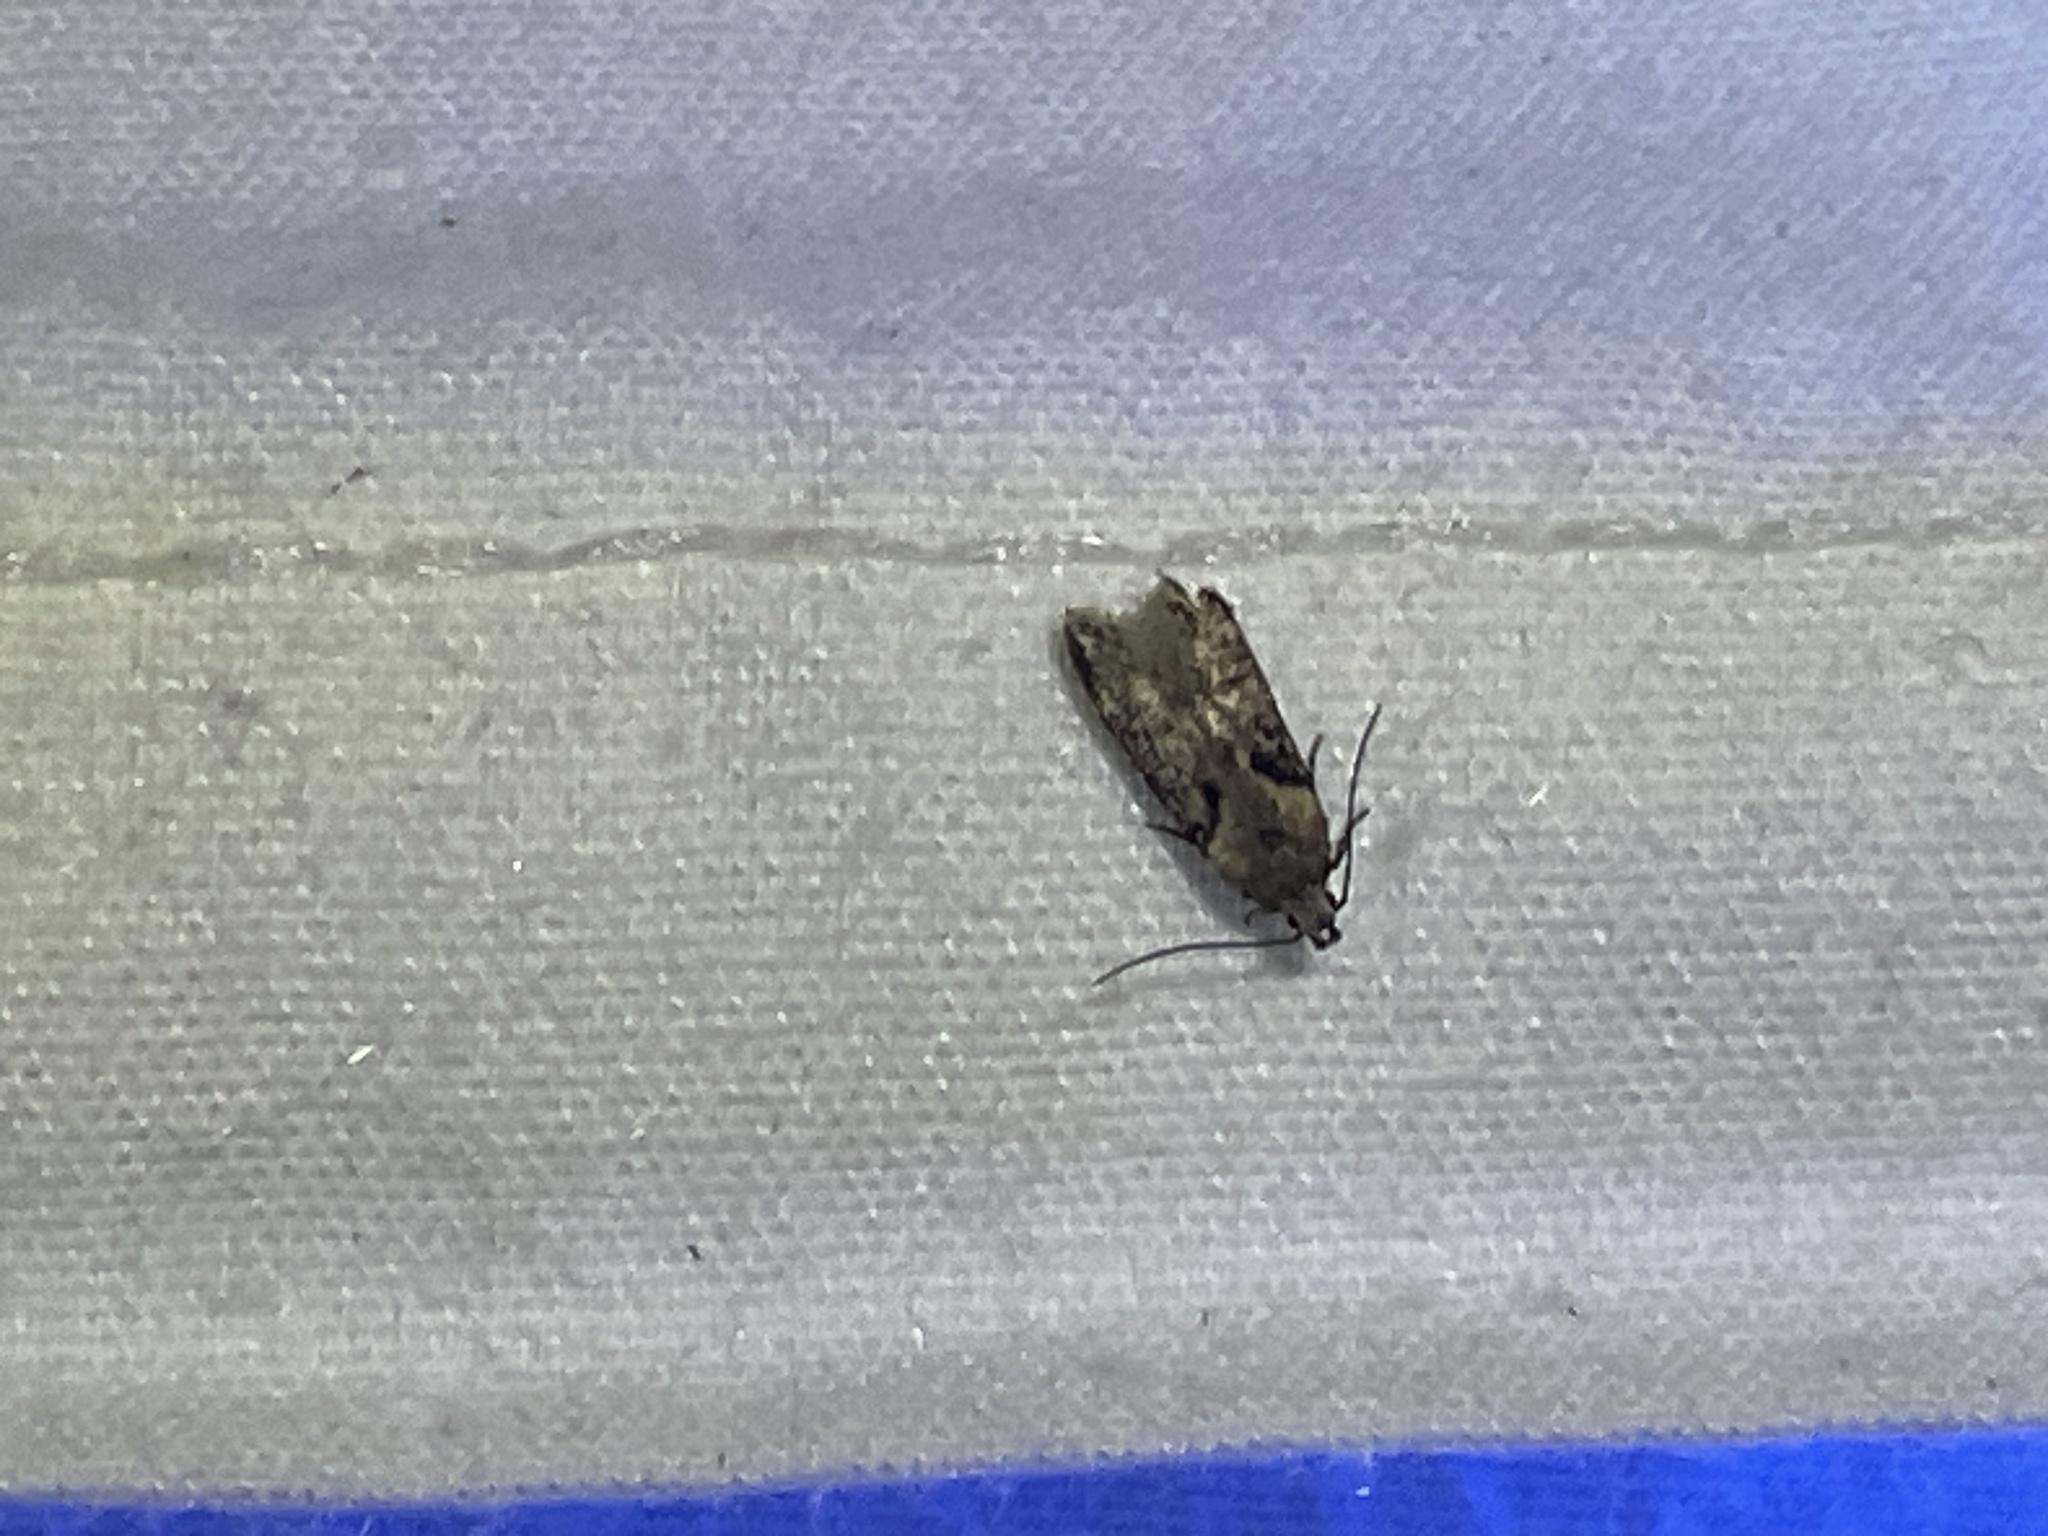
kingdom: Animalia
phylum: Arthropoda
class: Insecta
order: Lepidoptera
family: Gelechiidae
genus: Chionodes
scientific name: Chionodes mediofuscella
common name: Black-smudged chionodes moth
